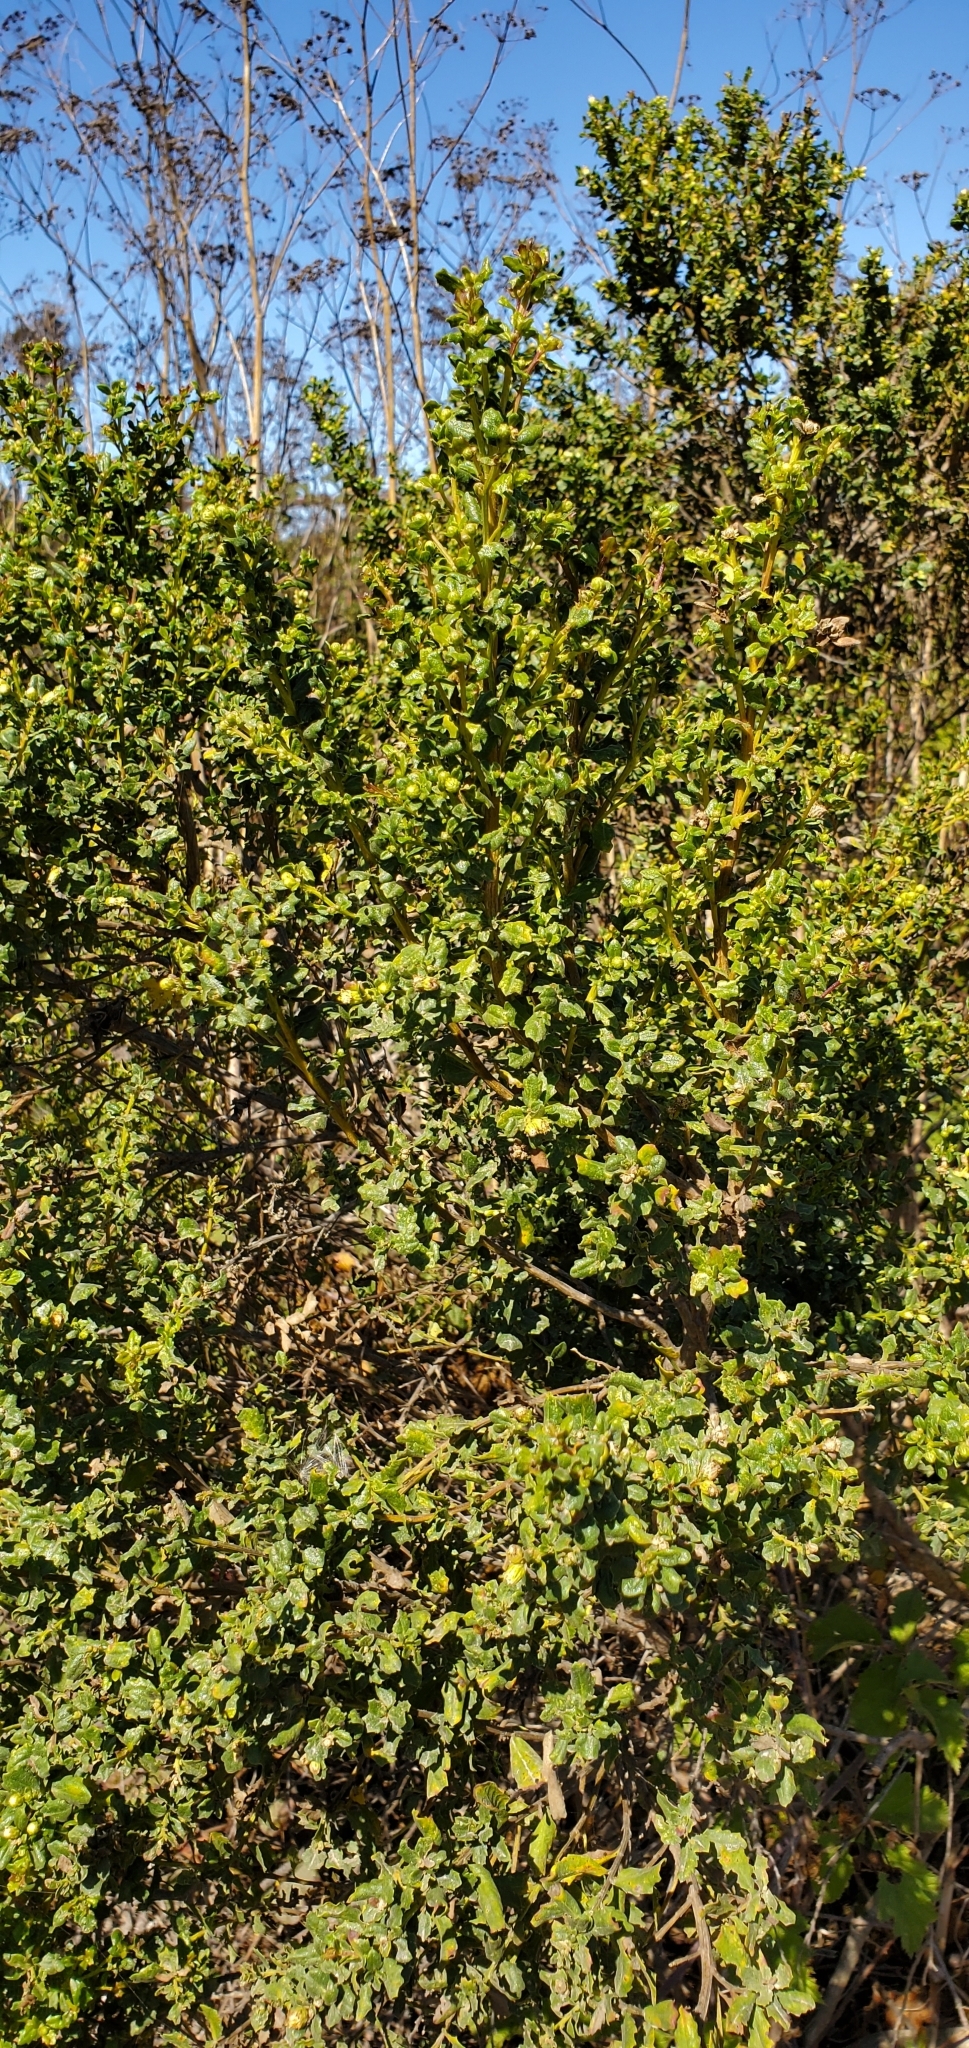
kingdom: Plantae
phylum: Tracheophyta
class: Magnoliopsida
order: Asterales
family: Asteraceae
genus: Baccharis
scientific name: Baccharis pilularis
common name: Coyotebrush
